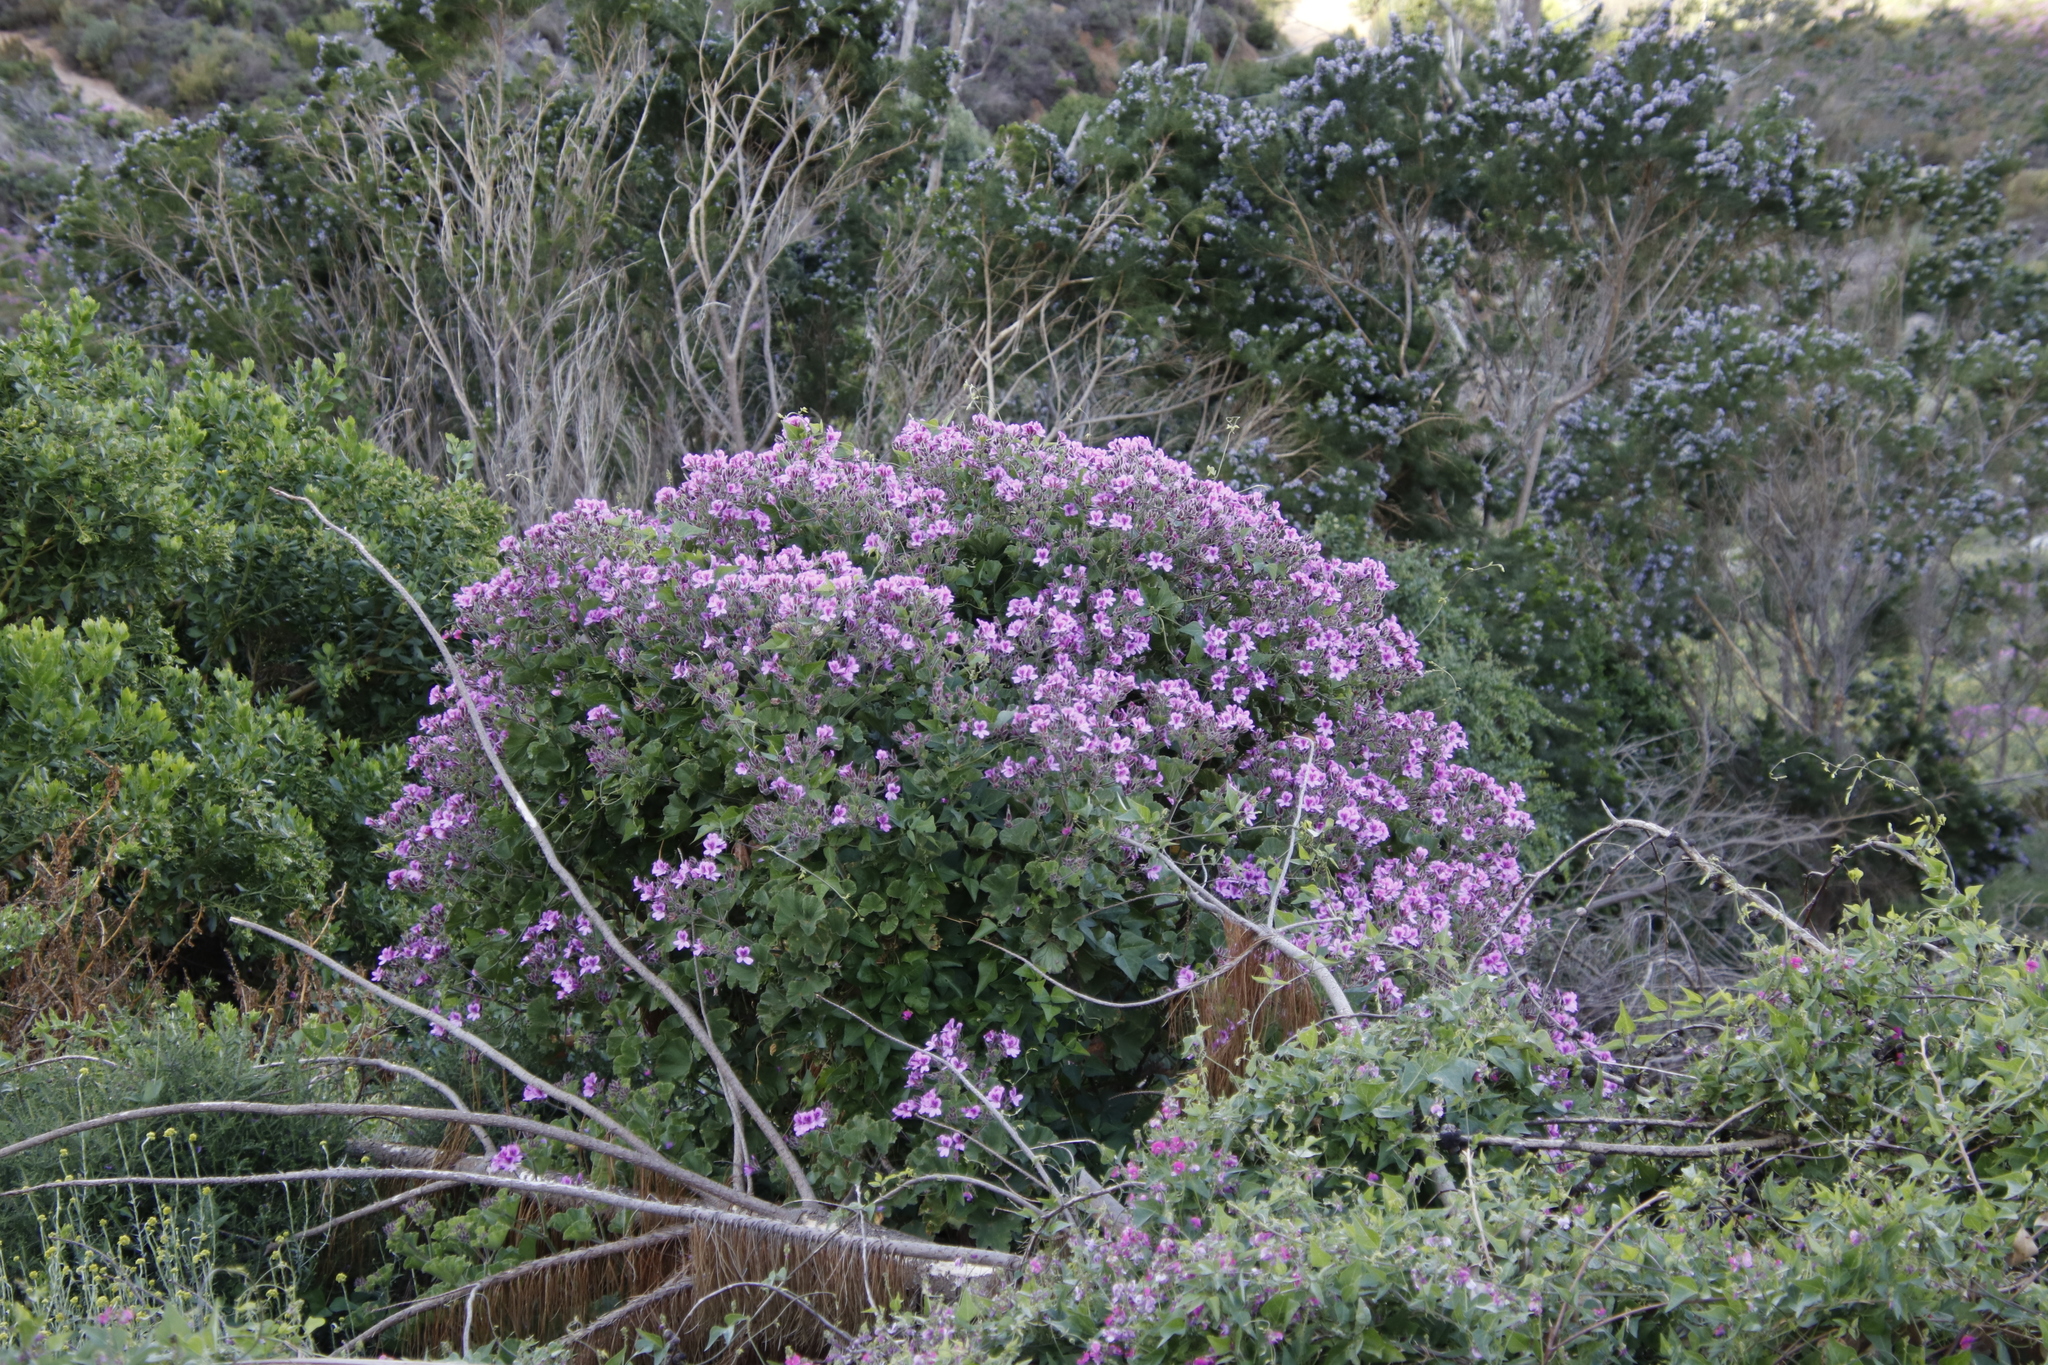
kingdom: Plantae
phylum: Tracheophyta
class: Magnoliopsida
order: Geraniales
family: Geraniaceae
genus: Pelargonium
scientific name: Pelargonium cucullatum
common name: Tree pelargonium
